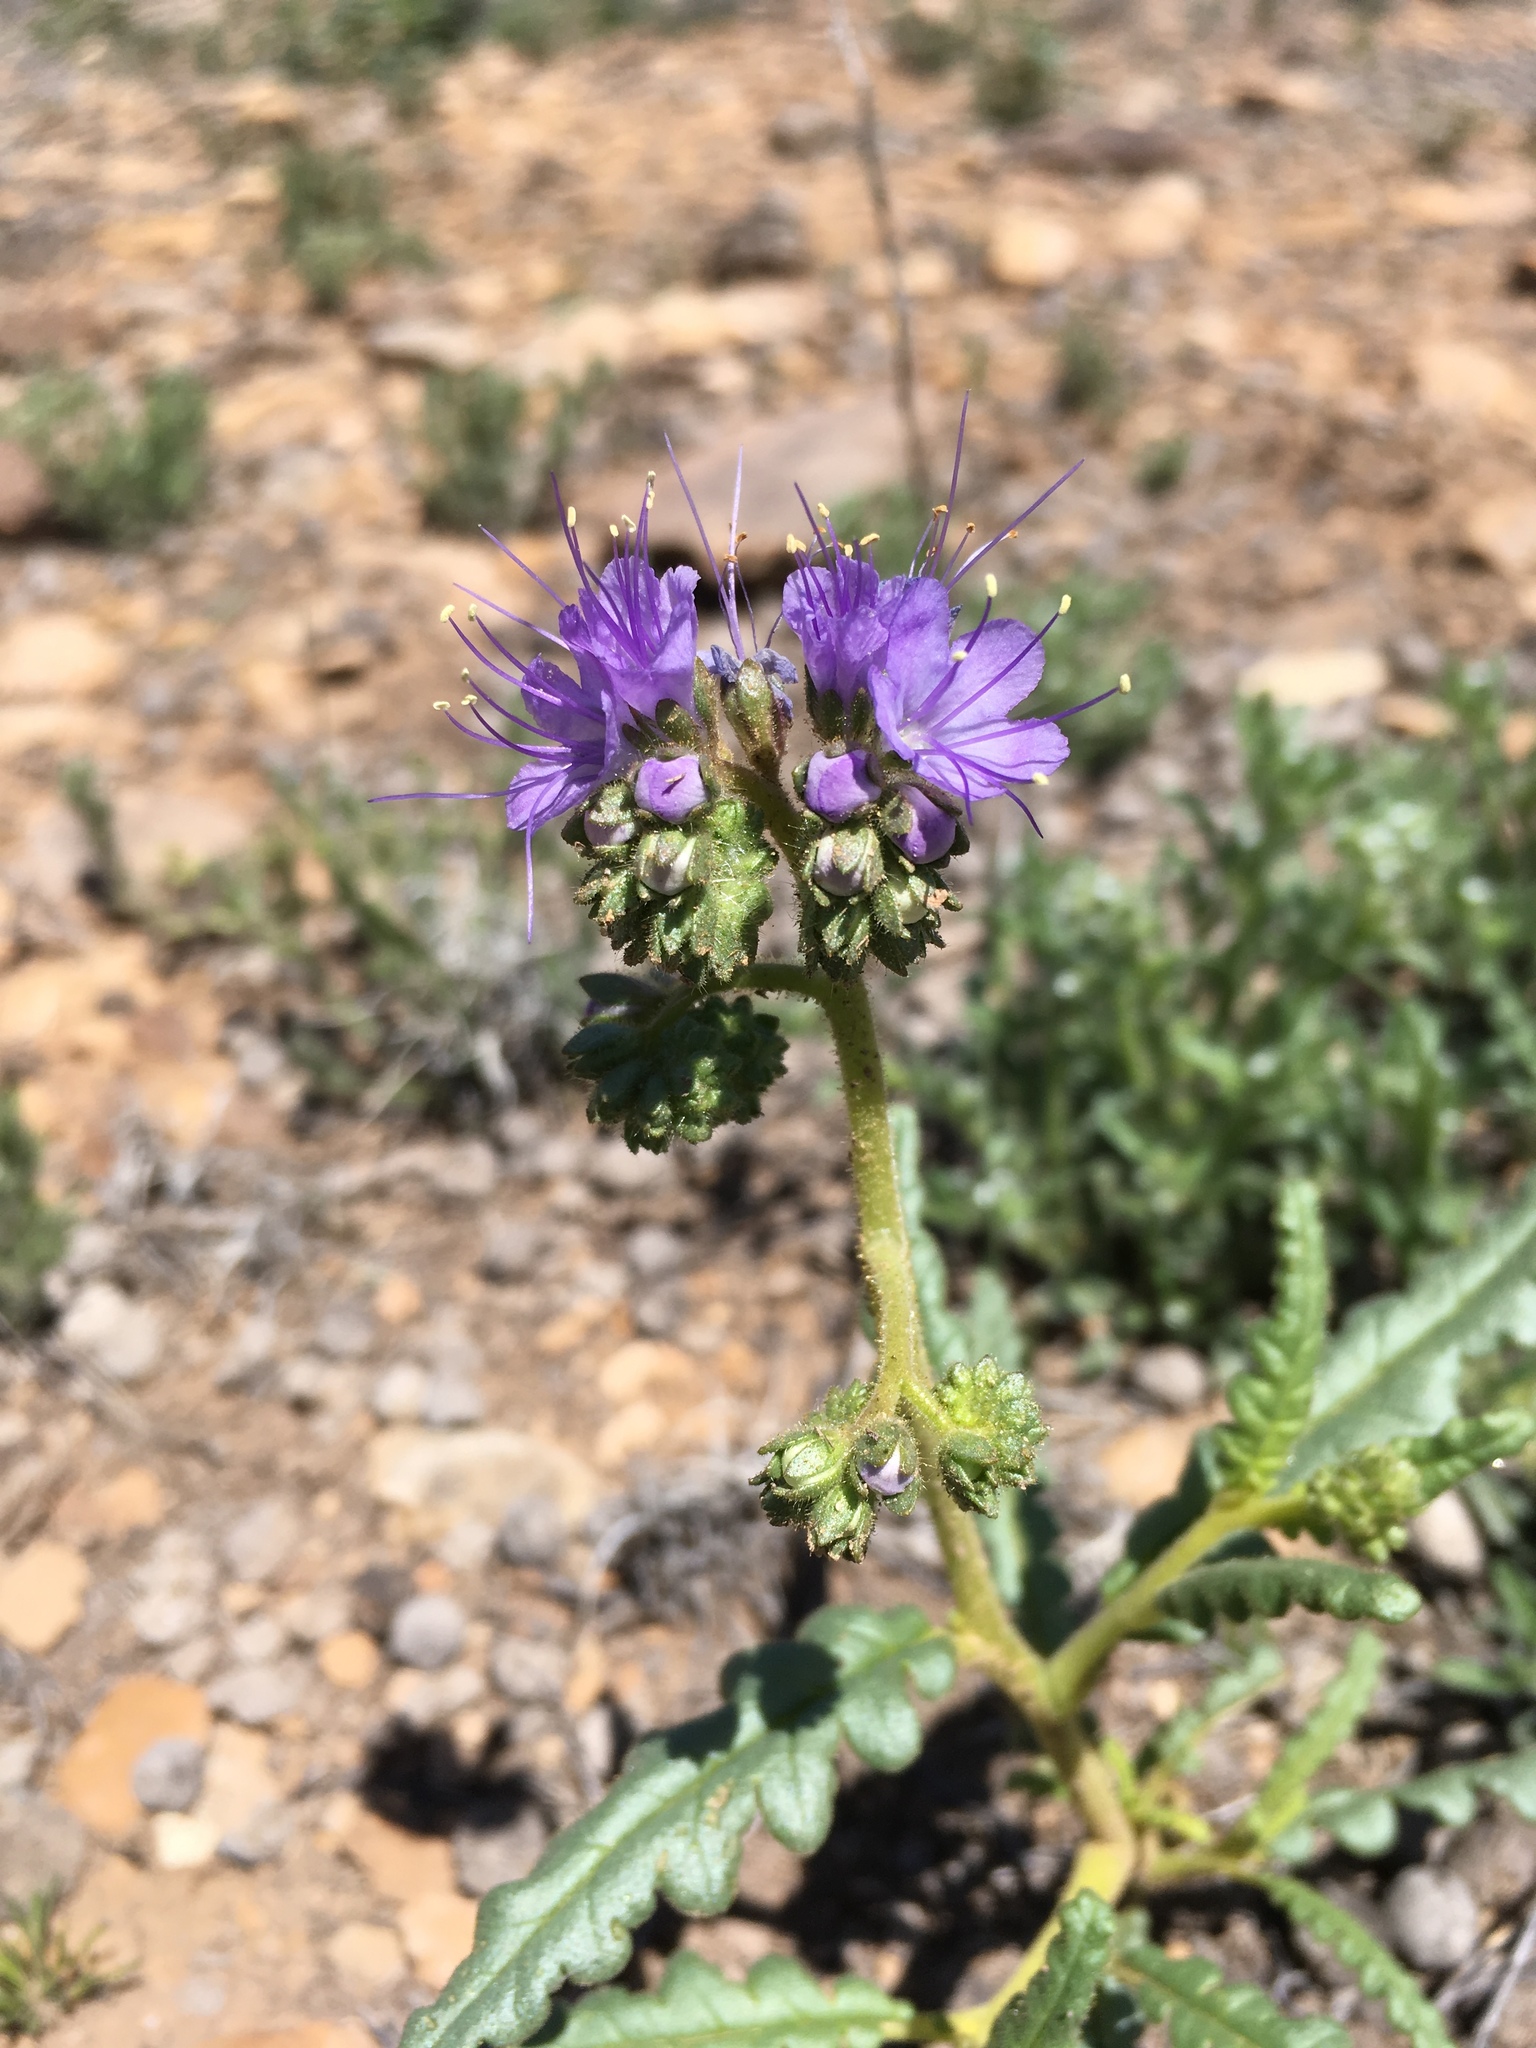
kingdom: Plantae
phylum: Tracheophyta
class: Magnoliopsida
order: Boraginales
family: Hydrophyllaceae
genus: Phacelia
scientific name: Phacelia corrugata
